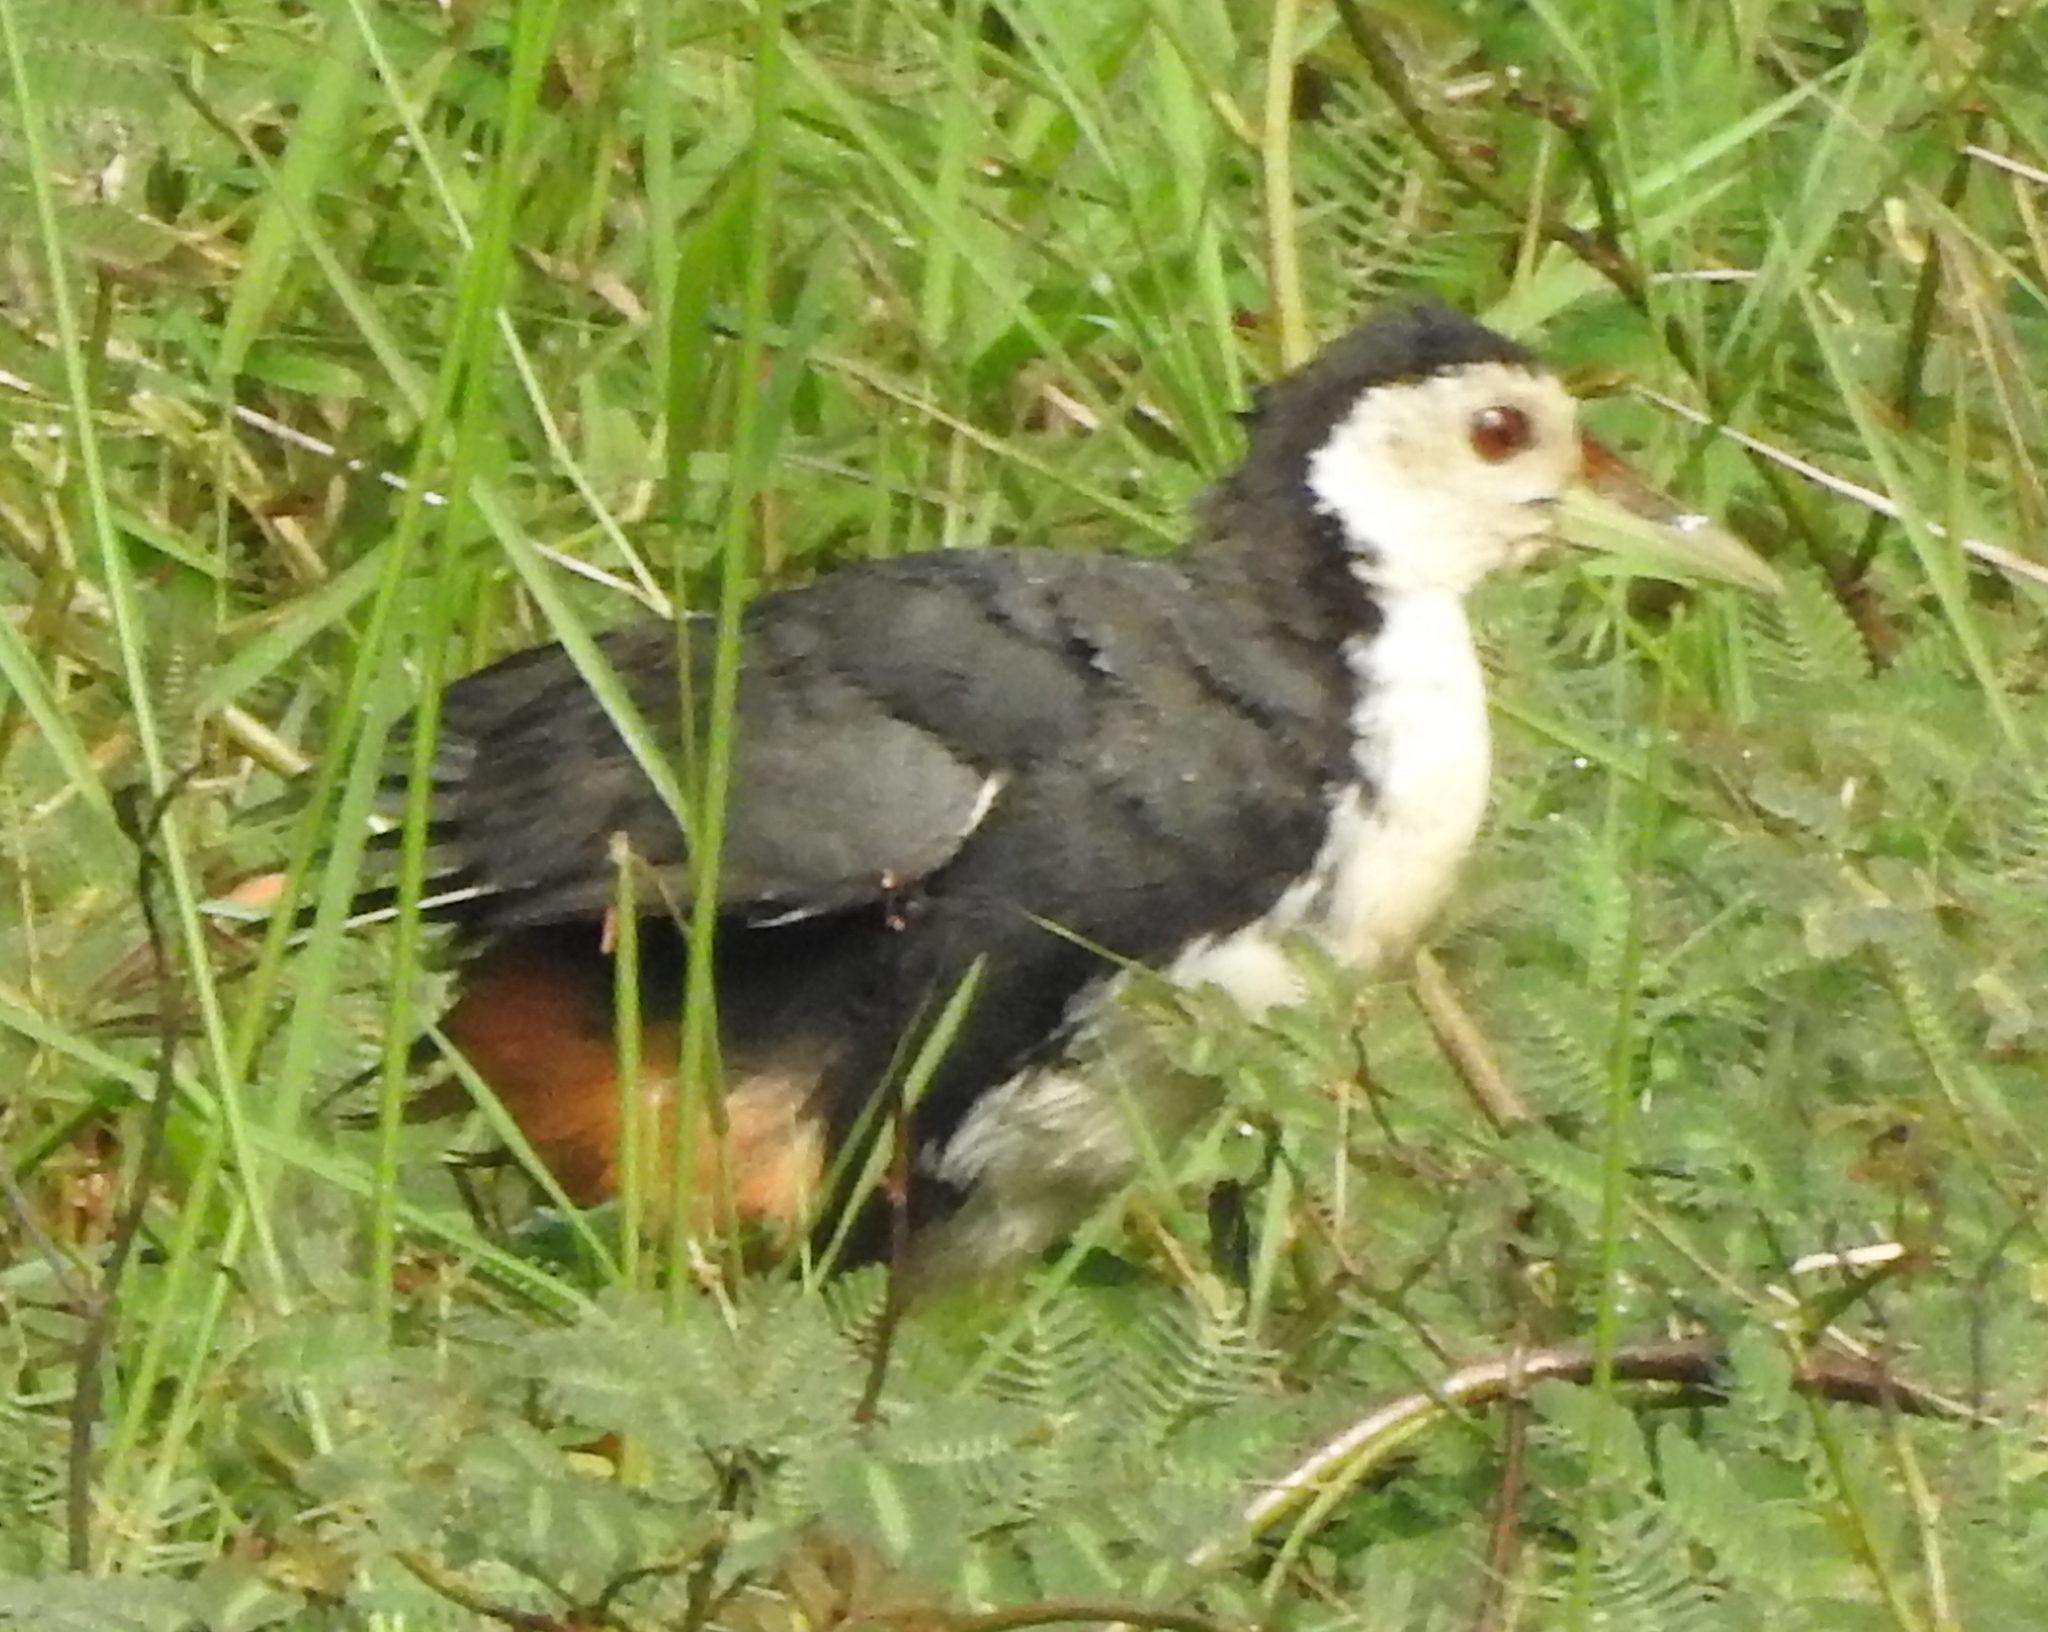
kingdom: Animalia
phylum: Chordata
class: Aves
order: Gruiformes
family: Rallidae
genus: Amaurornis
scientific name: Amaurornis phoenicurus
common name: White-breasted waterhen
